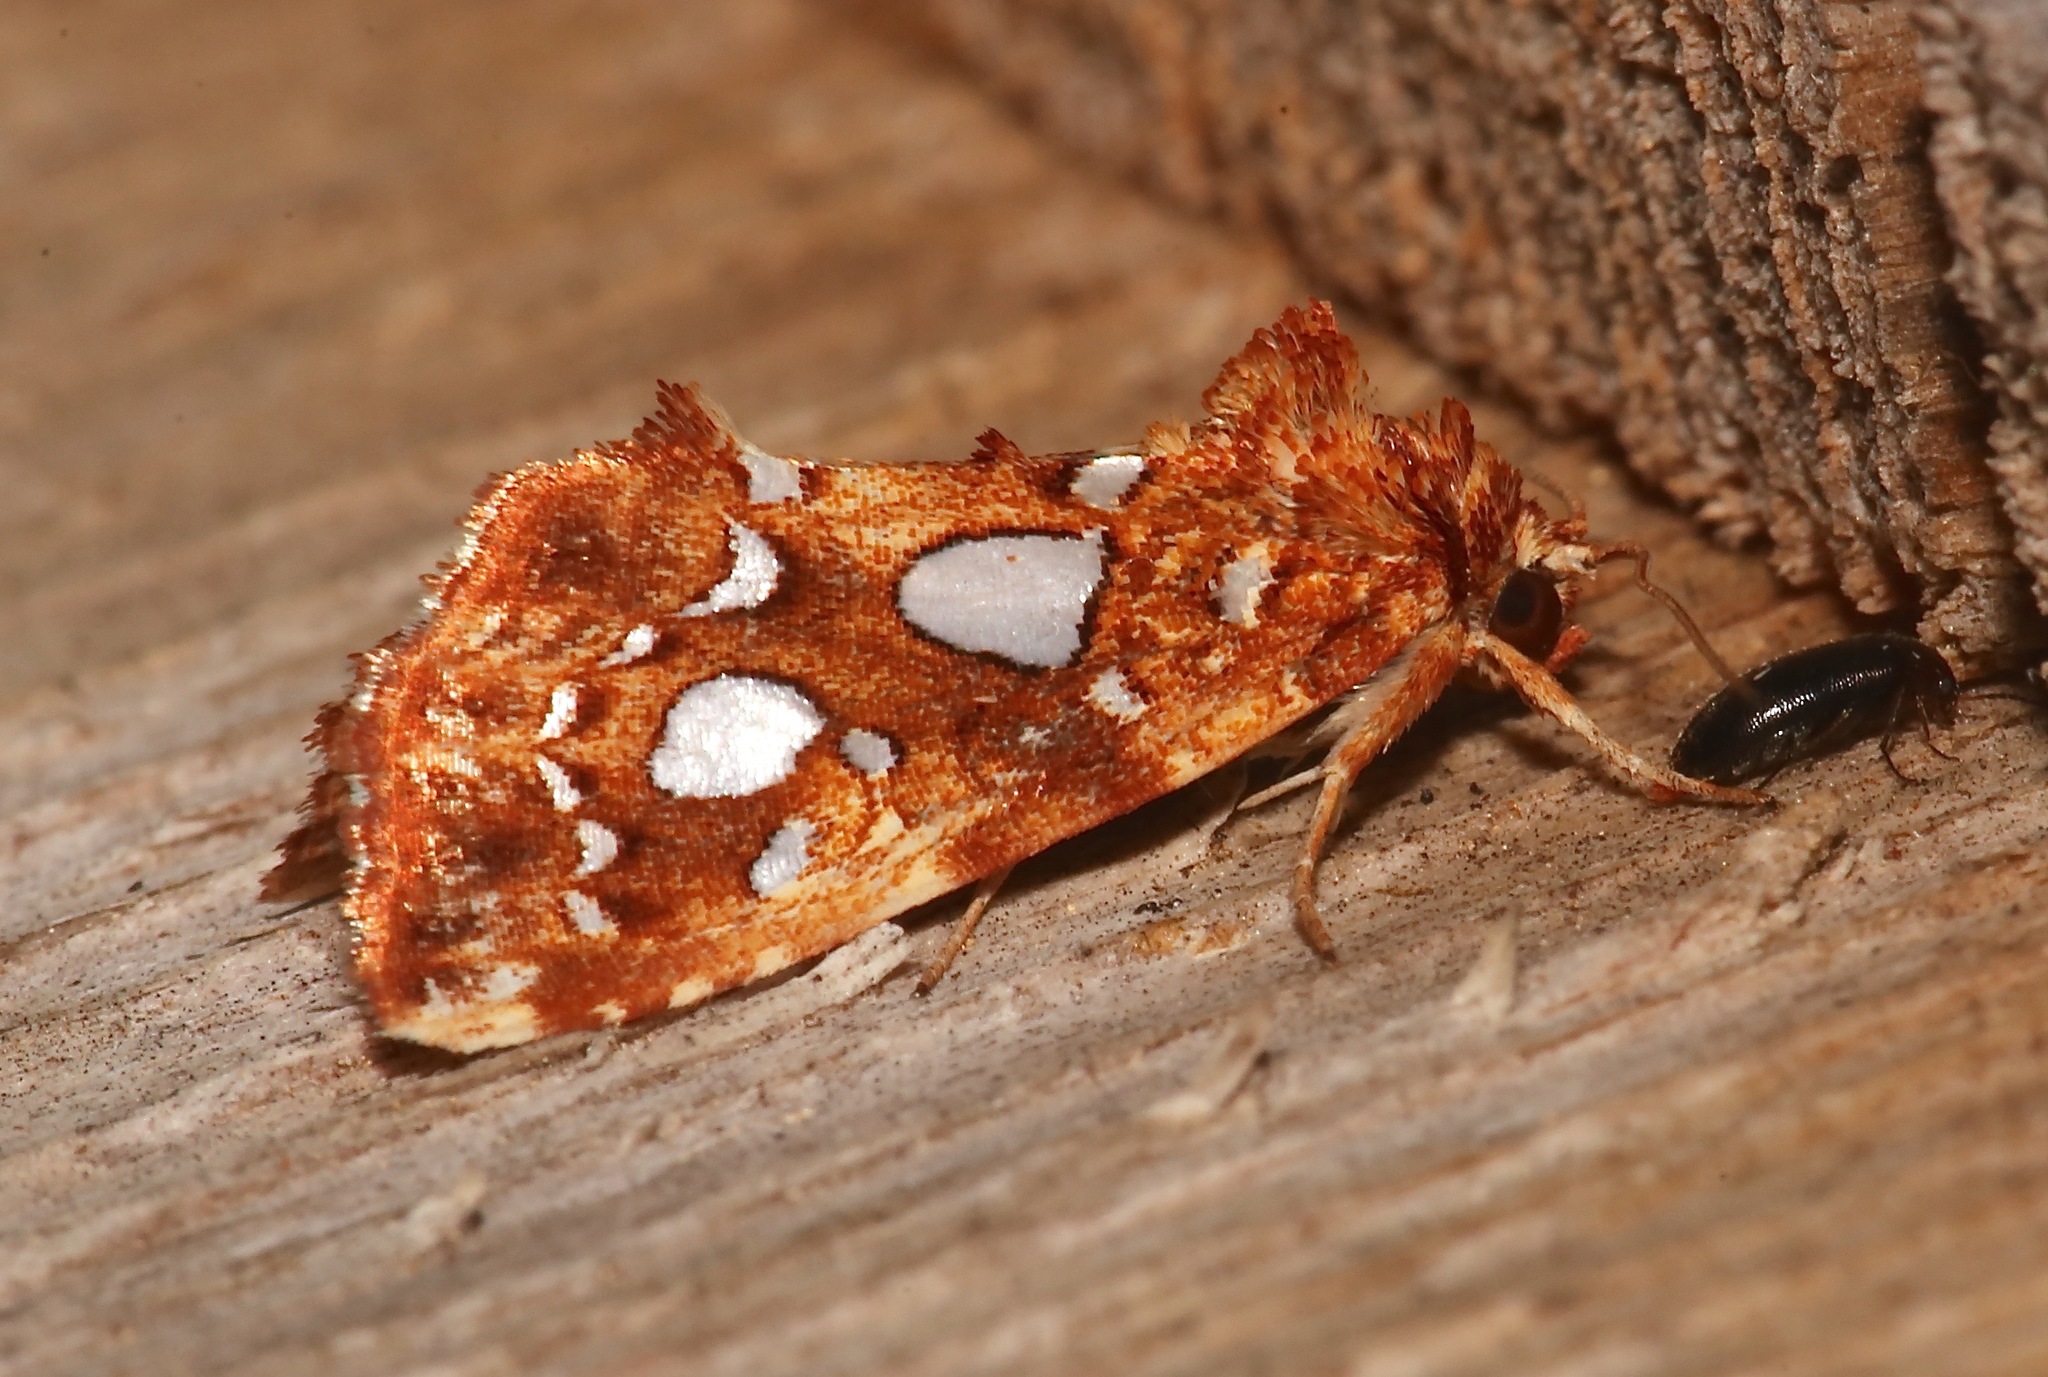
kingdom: Animalia
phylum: Arthropoda
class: Insecta
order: Lepidoptera
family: Noctuidae
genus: Callopistria
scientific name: Callopistria cordata
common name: Silver-spotted fern moth
